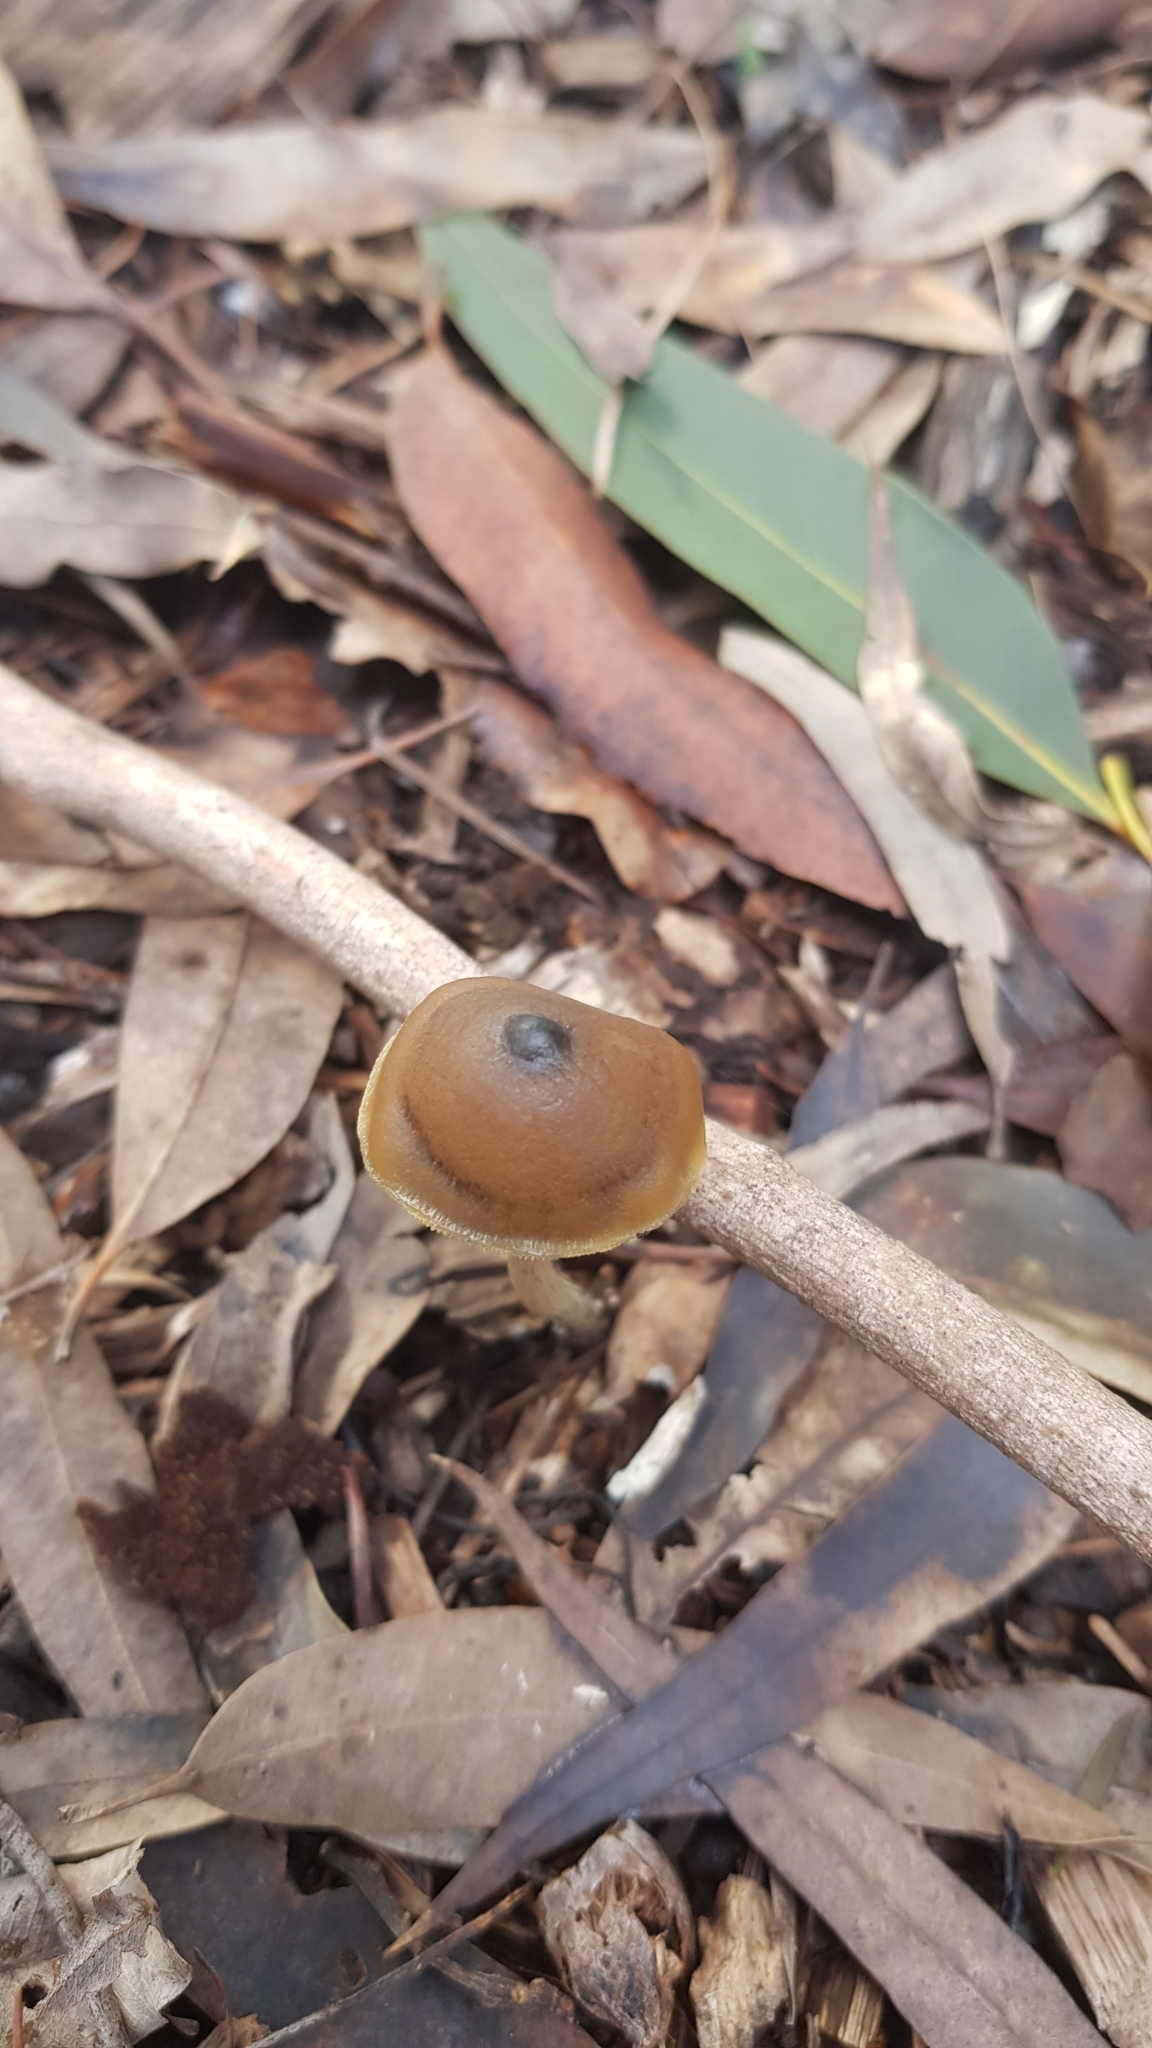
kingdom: Fungi
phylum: Basidiomycota
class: Agaricomycetes
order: Agaricales
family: Hymenogastraceae
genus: Psilocybe
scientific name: Psilocybe subaeruginosa
